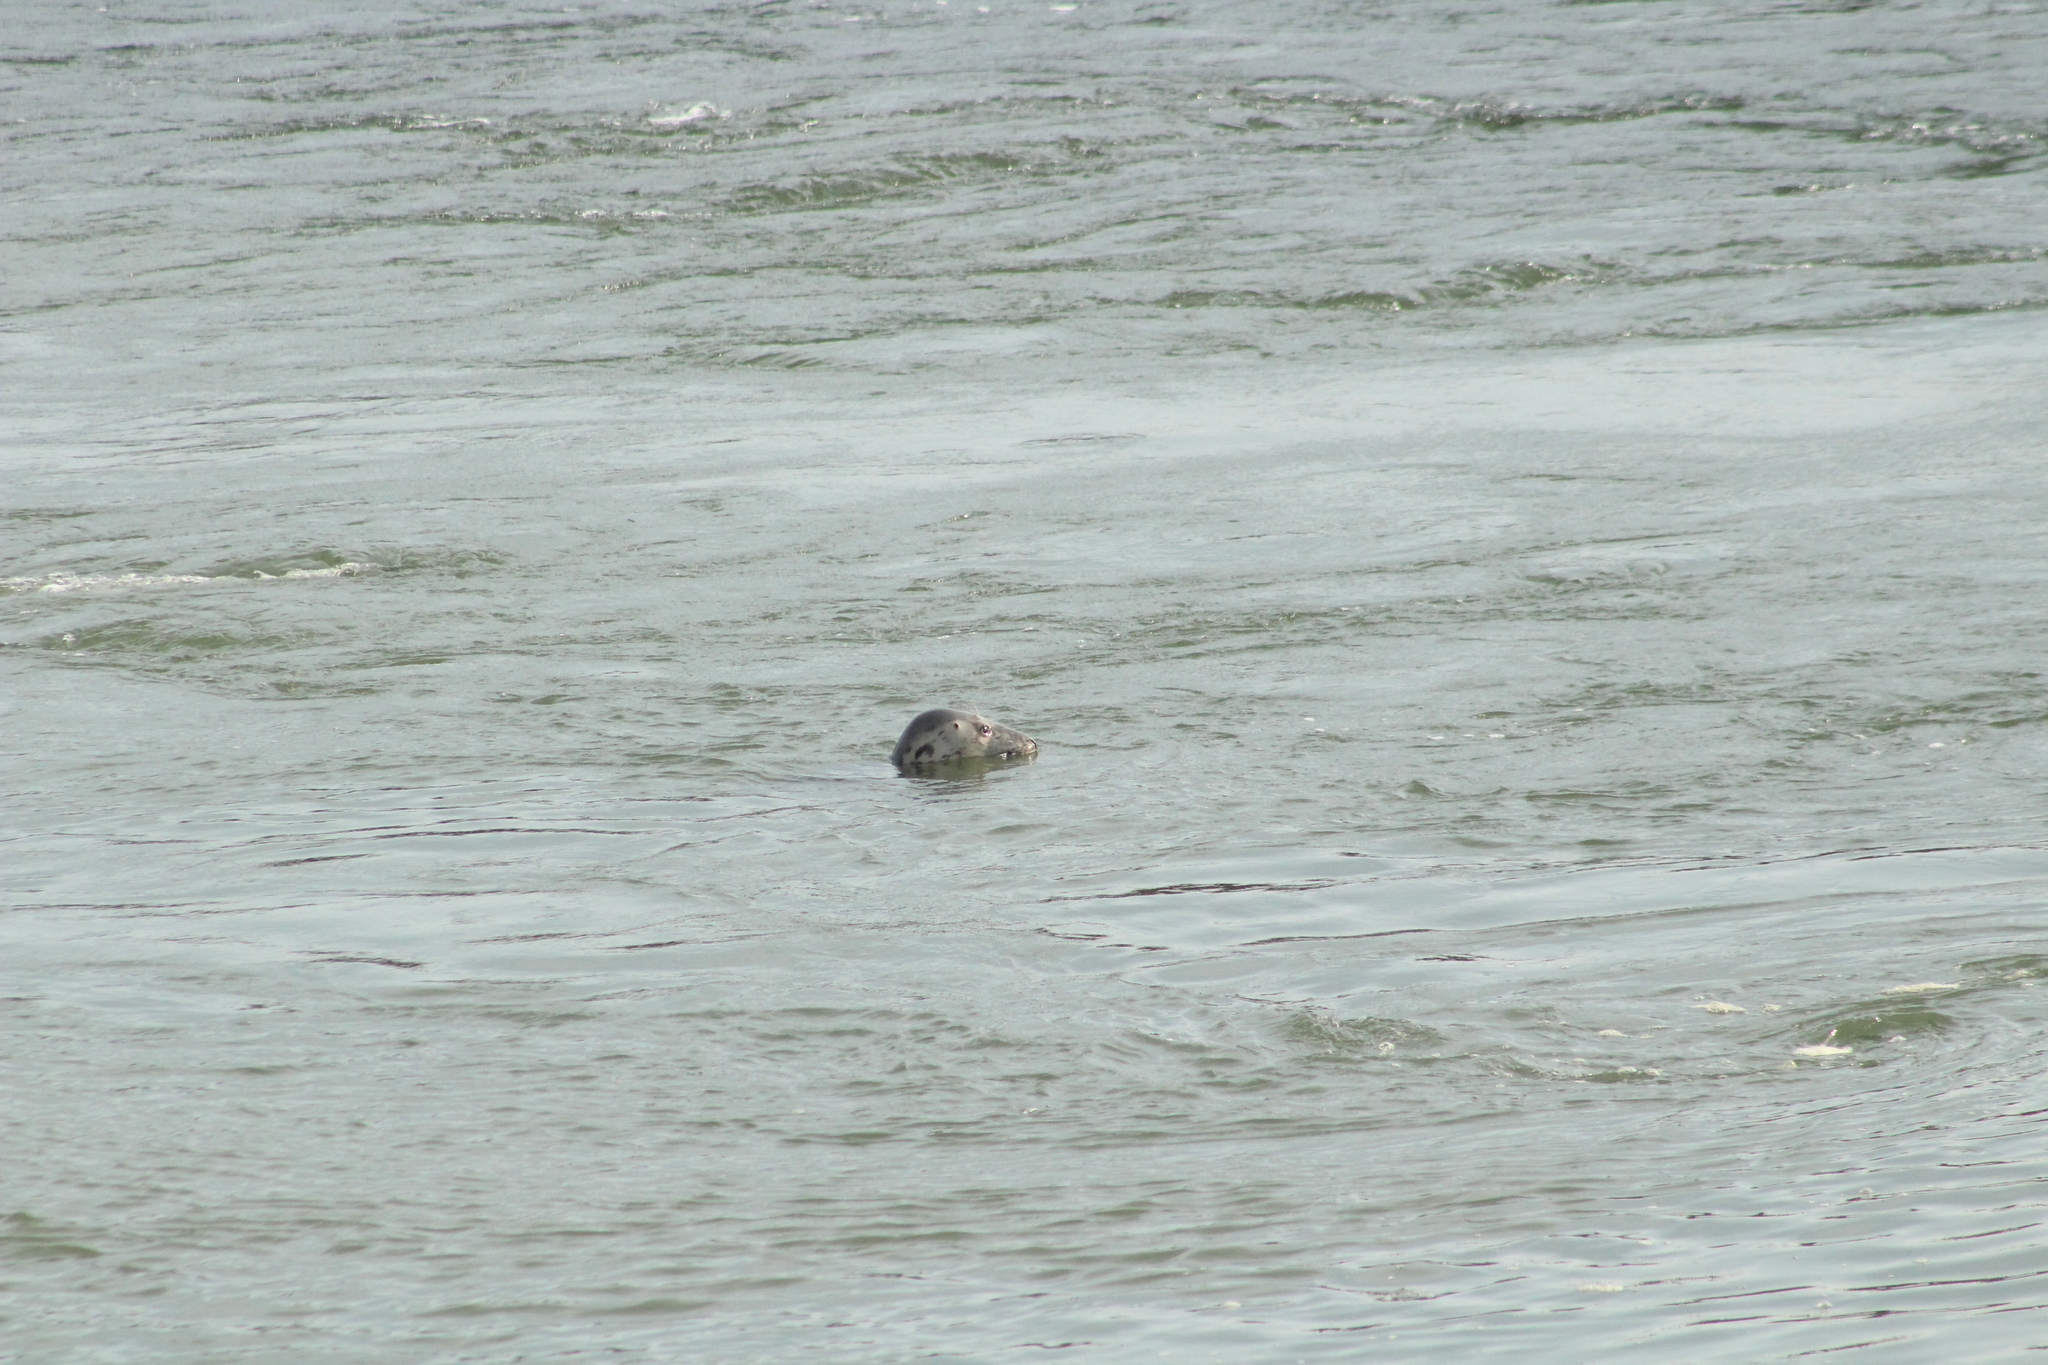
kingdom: Animalia
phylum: Chordata
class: Mammalia
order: Carnivora
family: Phocidae
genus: Halichoerus
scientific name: Halichoerus grypus
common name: Grey seal
